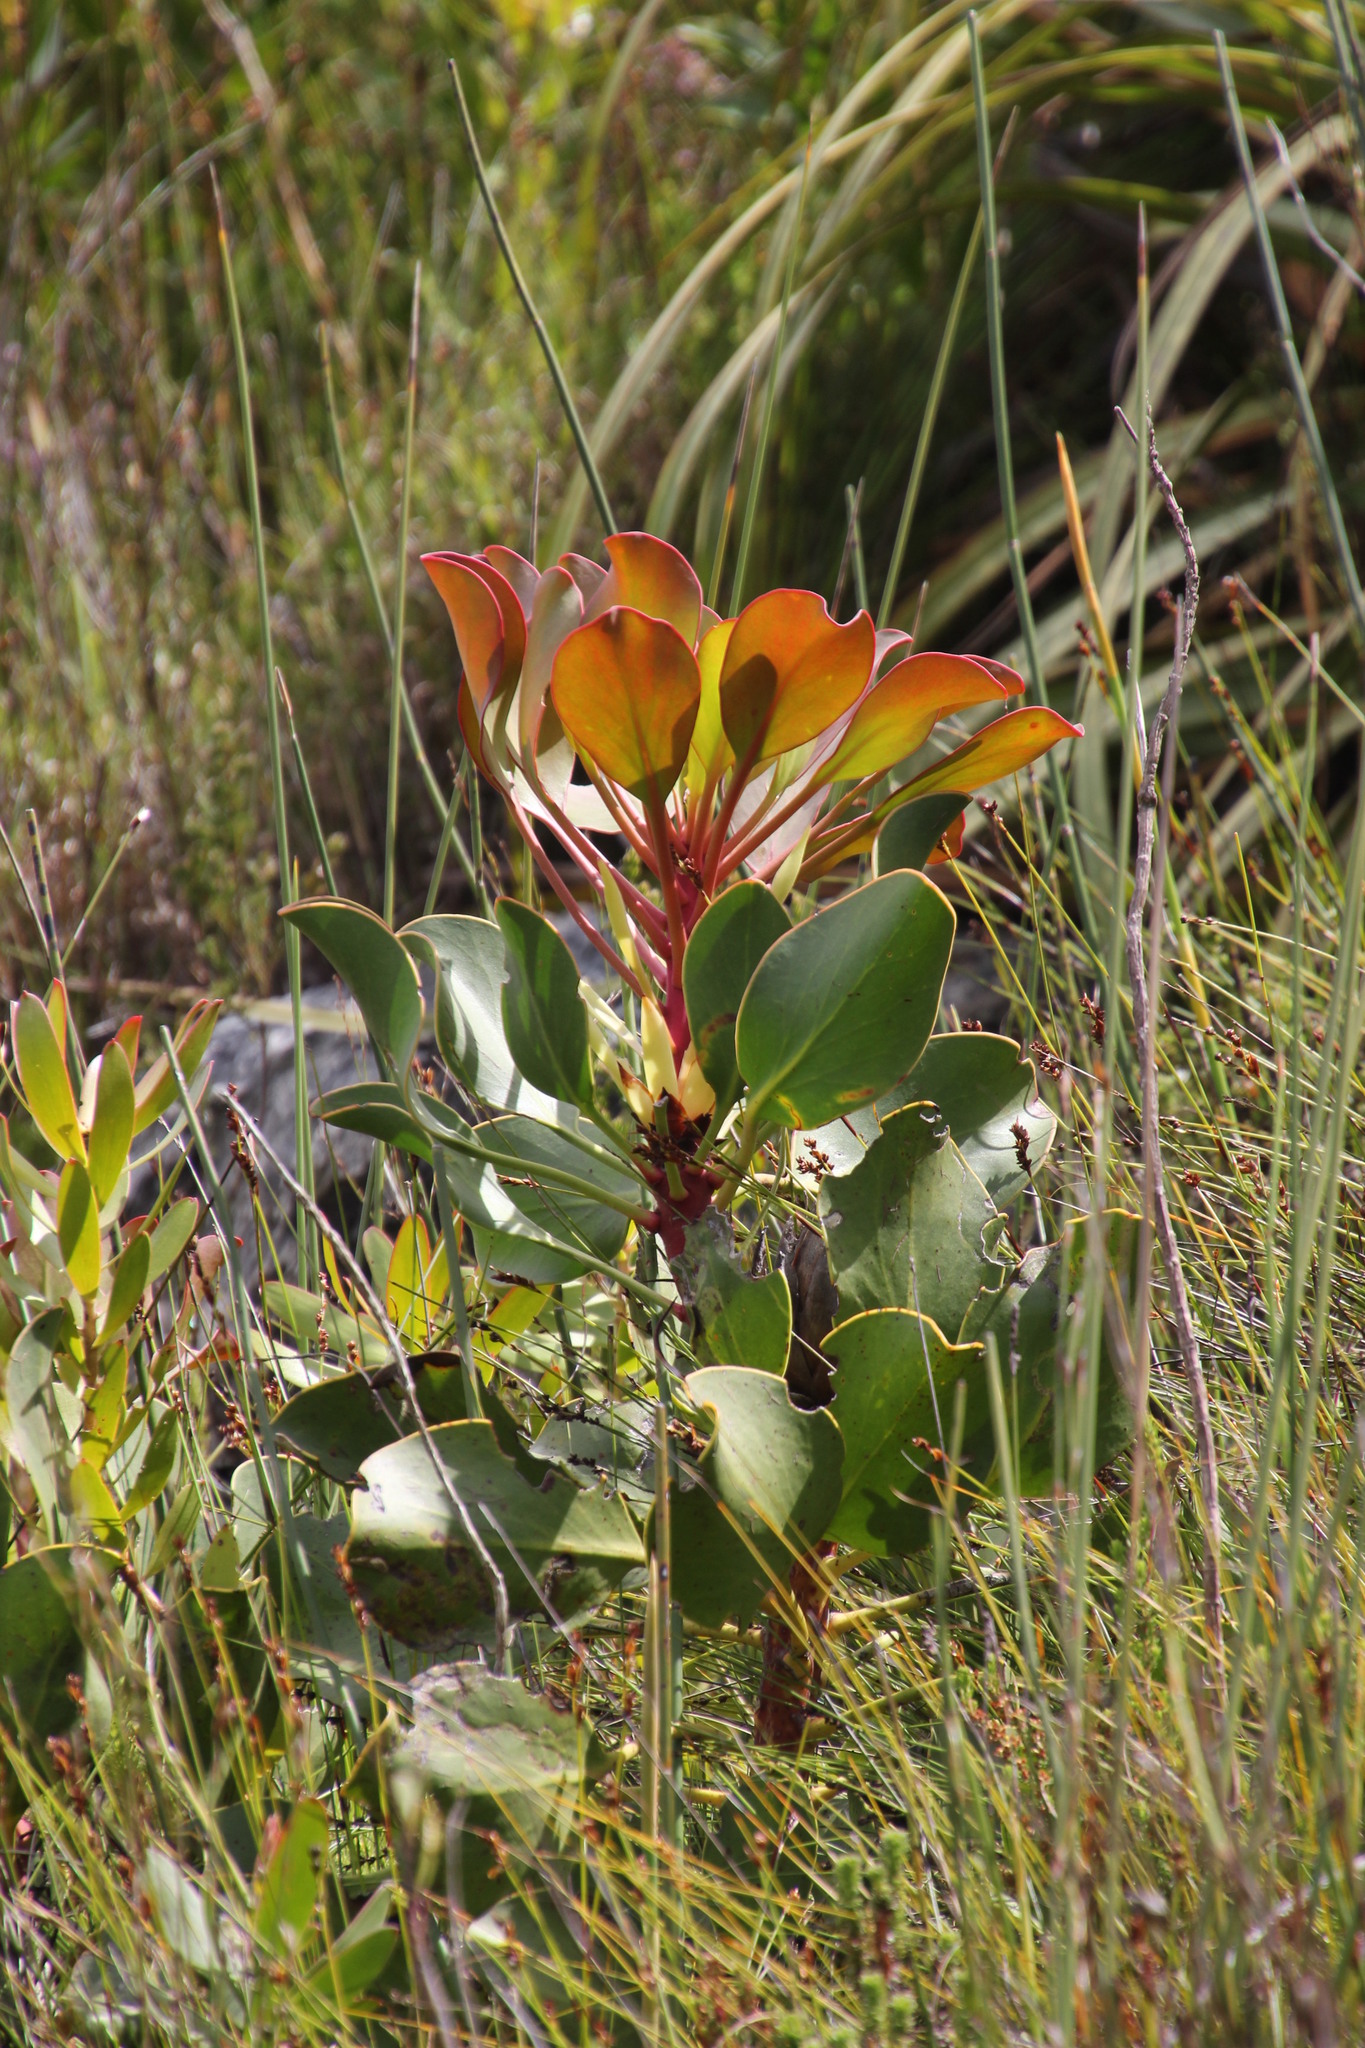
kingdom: Plantae
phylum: Tracheophyta
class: Magnoliopsida
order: Proteales
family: Proteaceae
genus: Protea
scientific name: Protea cynaroides
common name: King protea
